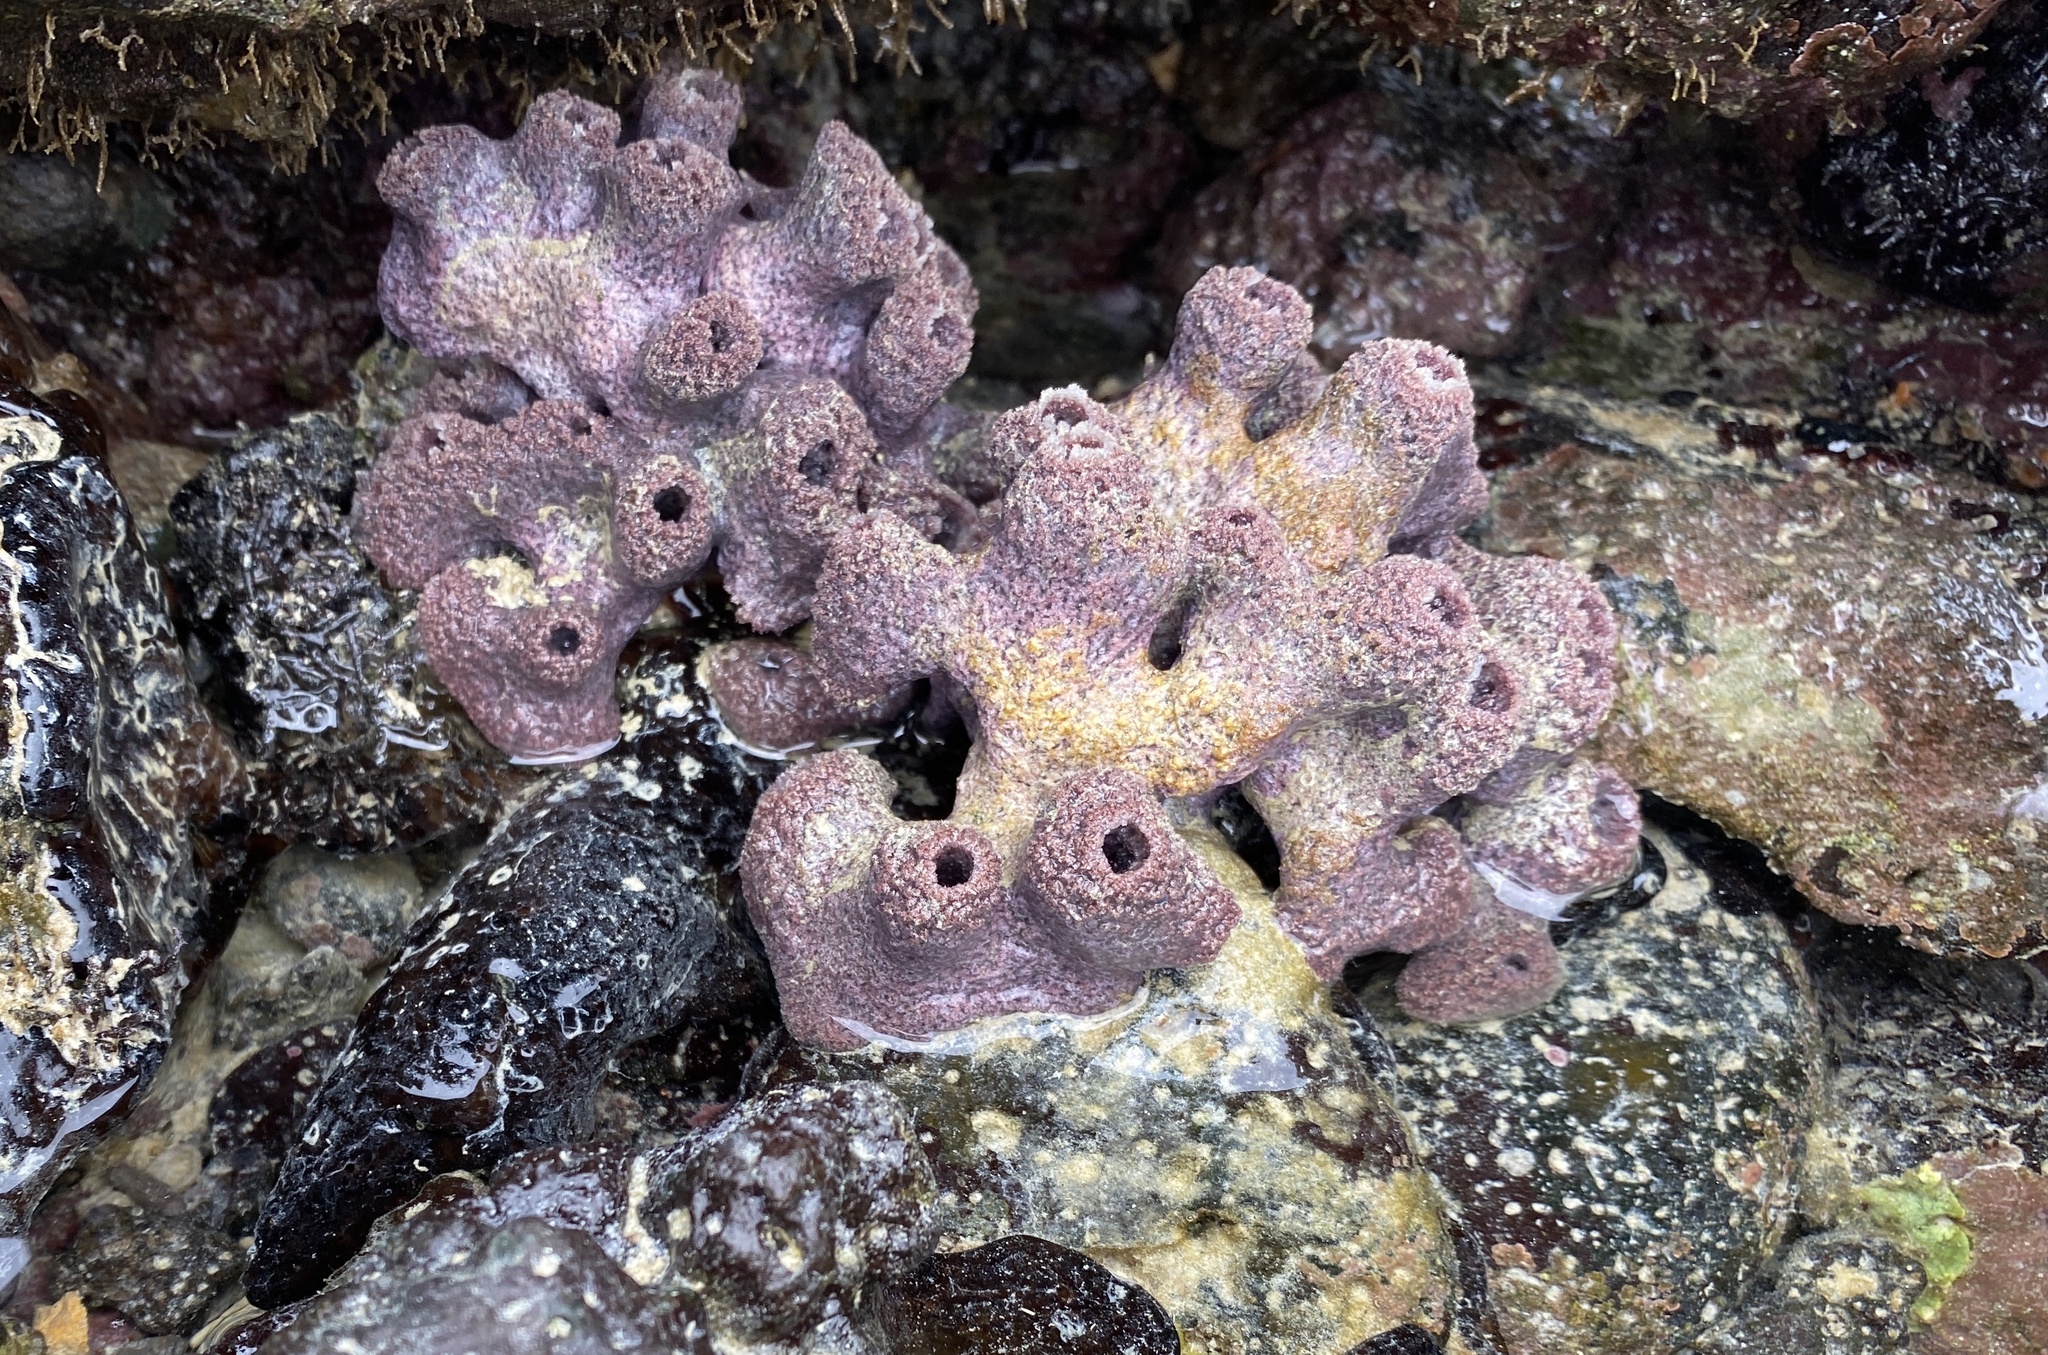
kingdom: Animalia
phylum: Porifera
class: Demospongiae
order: Haplosclerida
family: Chalinidae
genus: Haliclona
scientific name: Haliclona caerulea
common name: Blue caribbean sponge
